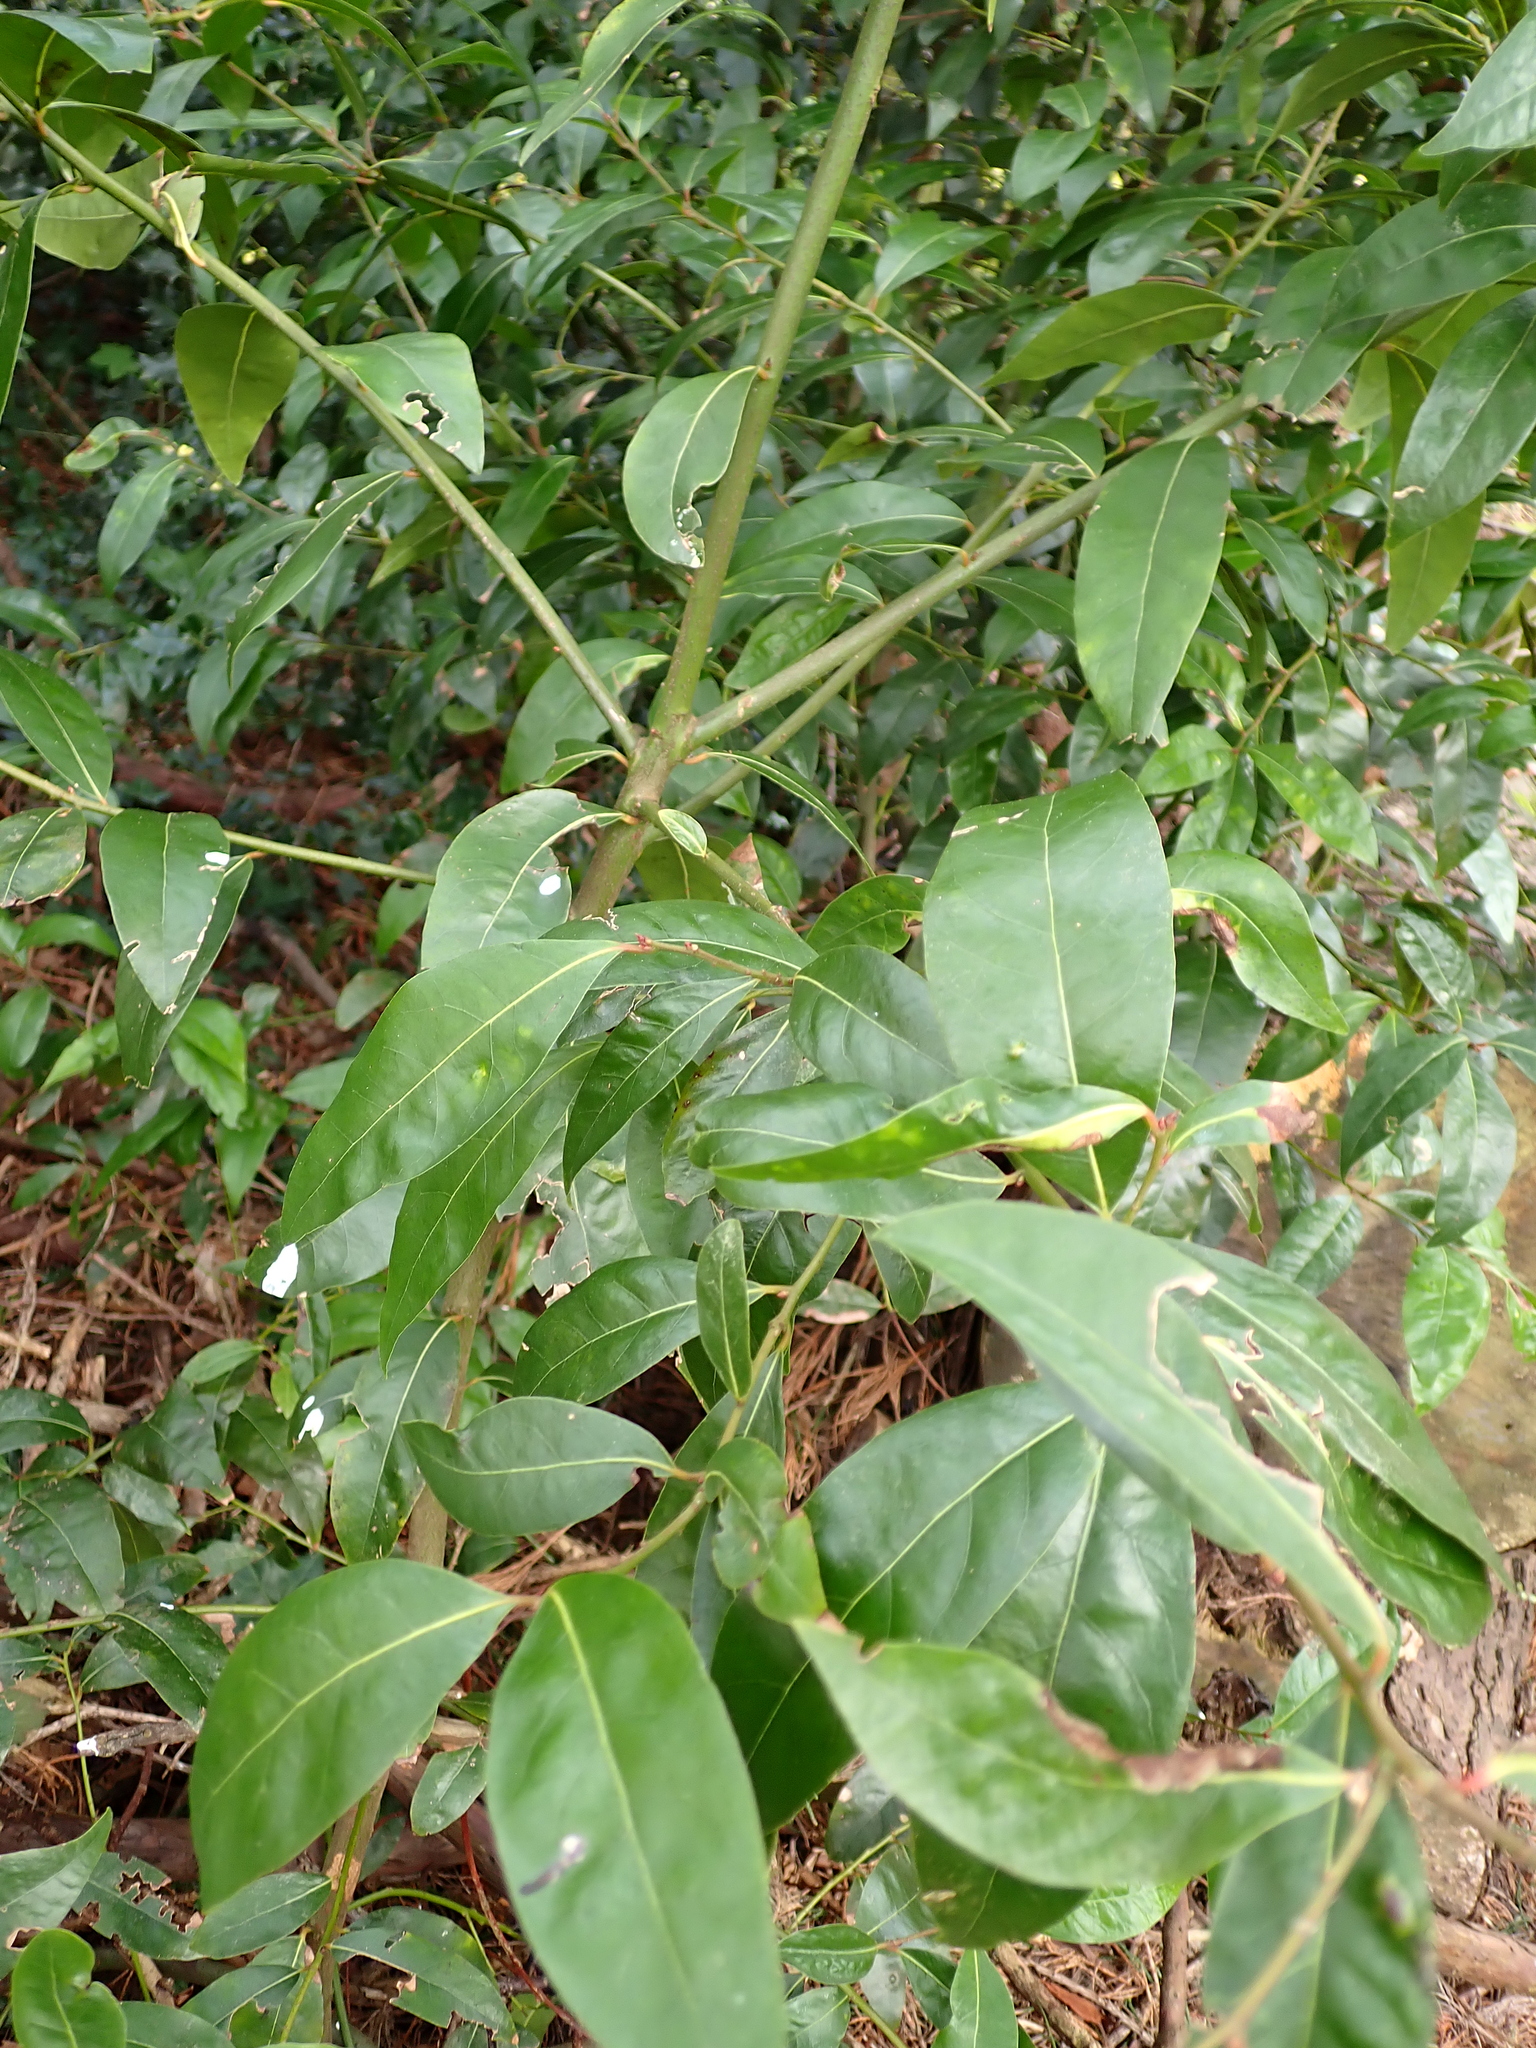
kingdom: Plantae
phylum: Tracheophyta
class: Magnoliopsida
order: Laurales
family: Lauraceae
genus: Laurus
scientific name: Laurus nobilis
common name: Bay
